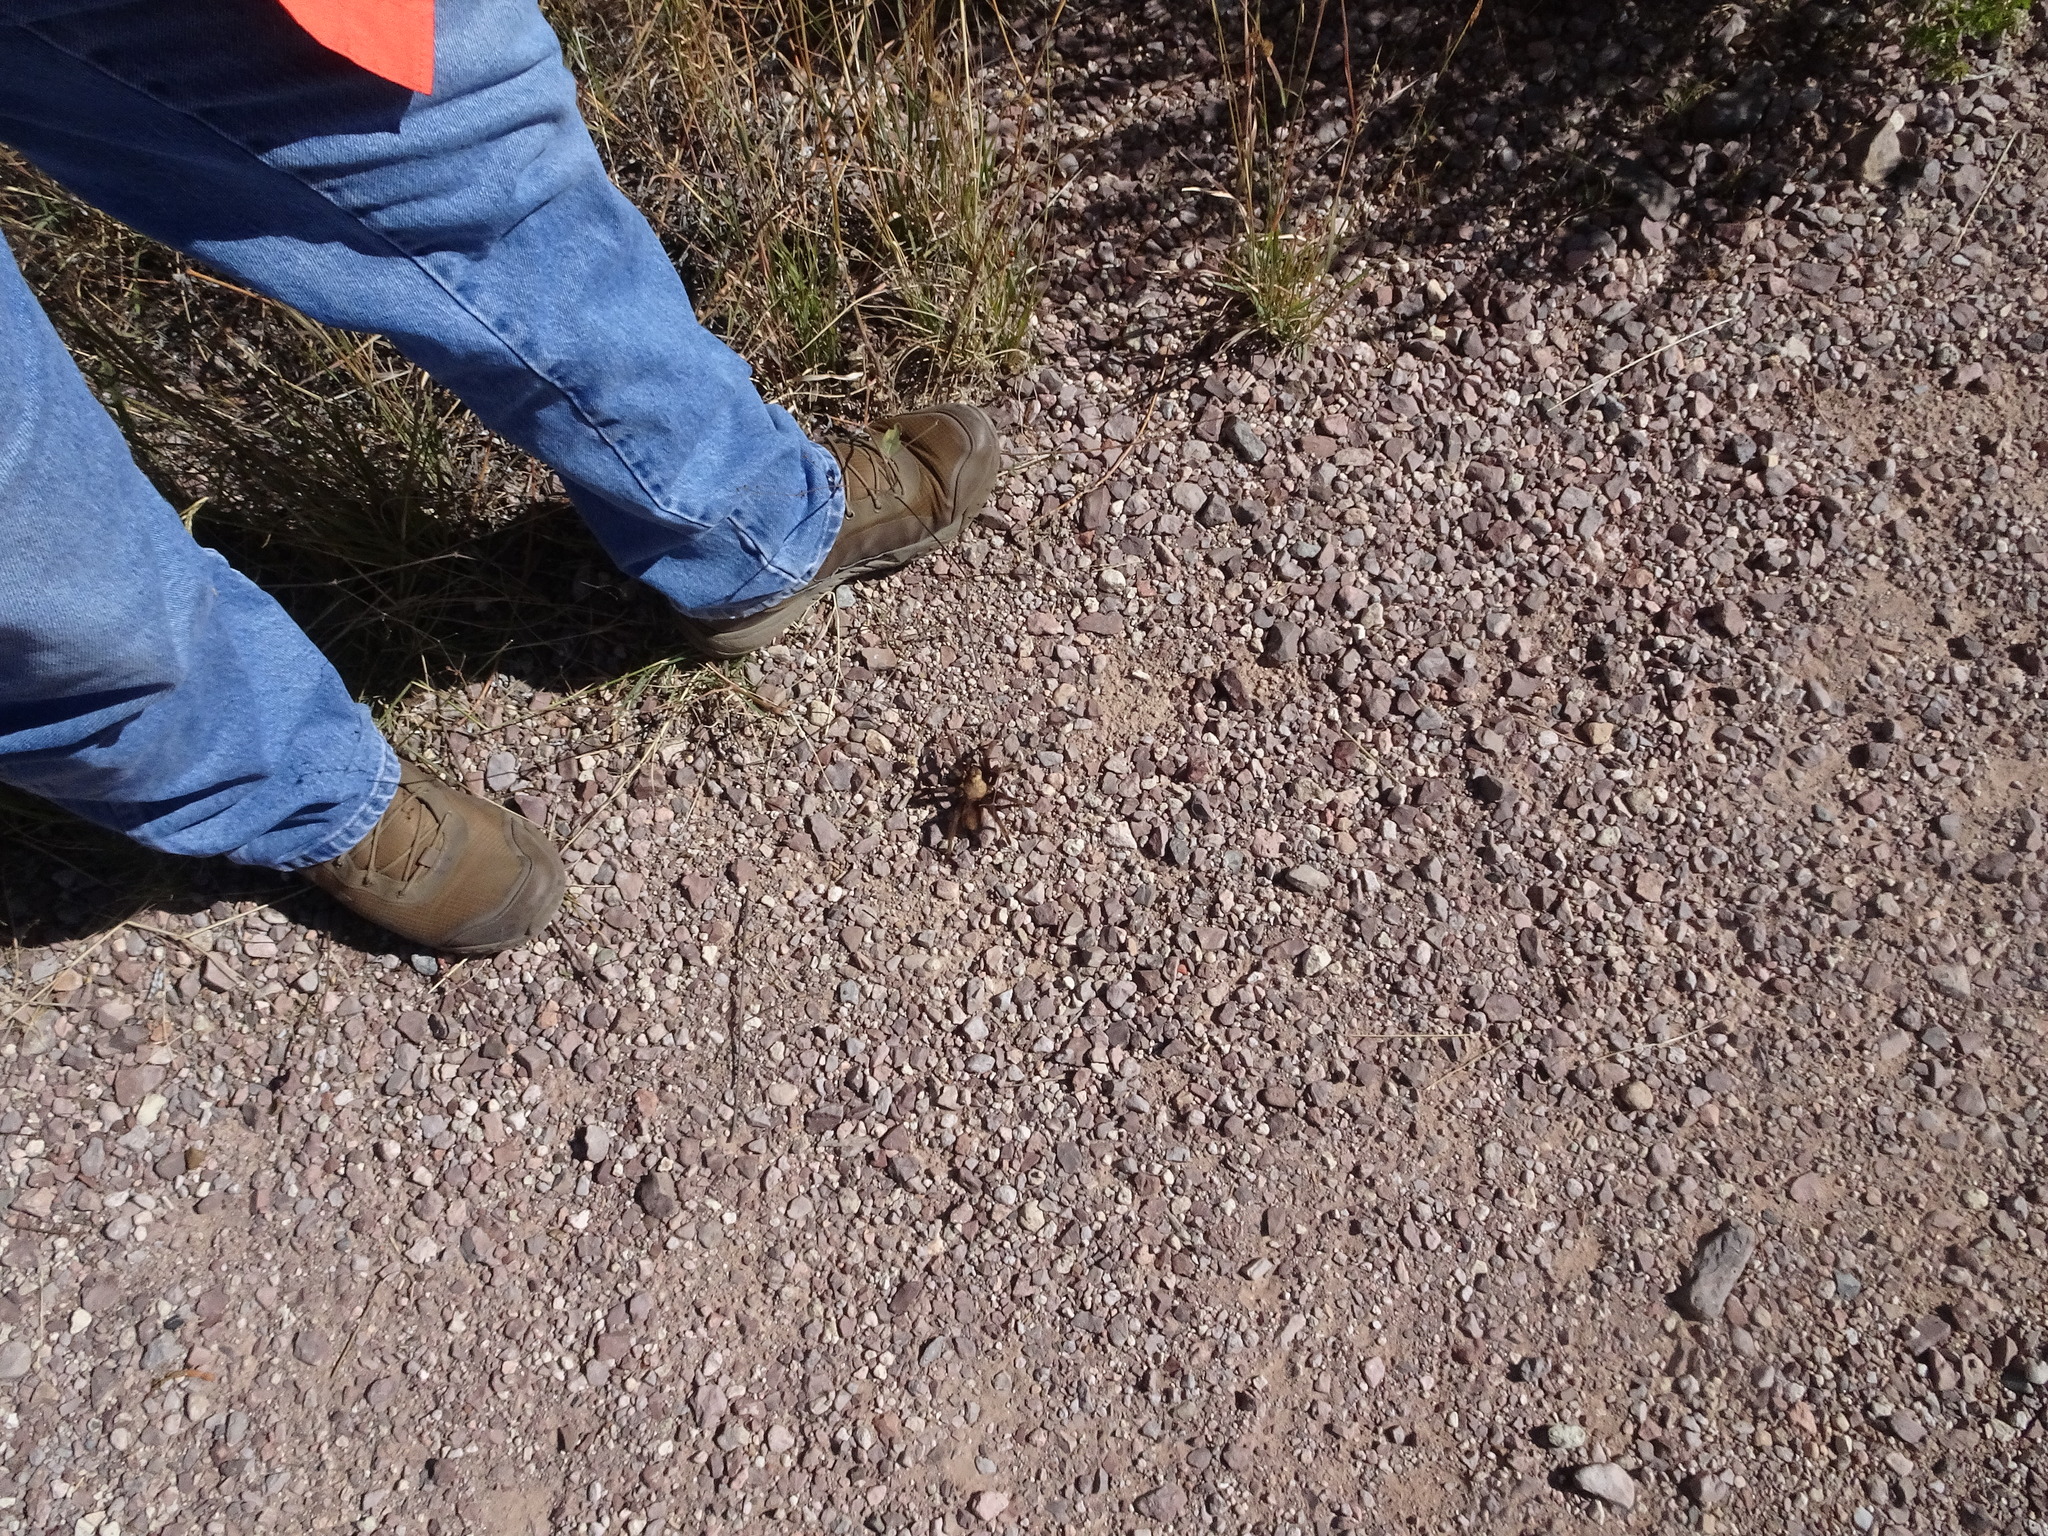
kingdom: Animalia
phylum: Arthropoda
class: Arachnida
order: Araneae
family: Theraphosidae
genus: Aphonopelma
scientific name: Aphonopelma hentzi
